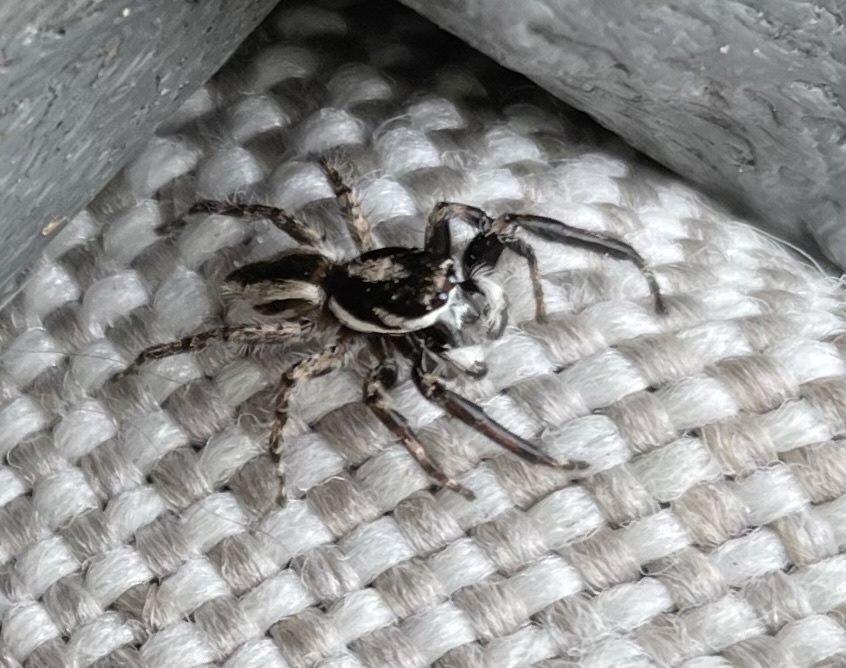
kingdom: Animalia
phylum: Arthropoda
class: Arachnida
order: Araneae
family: Salticidae
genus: Menemerus
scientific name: Menemerus bivittatus
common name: Gray wall jumper
